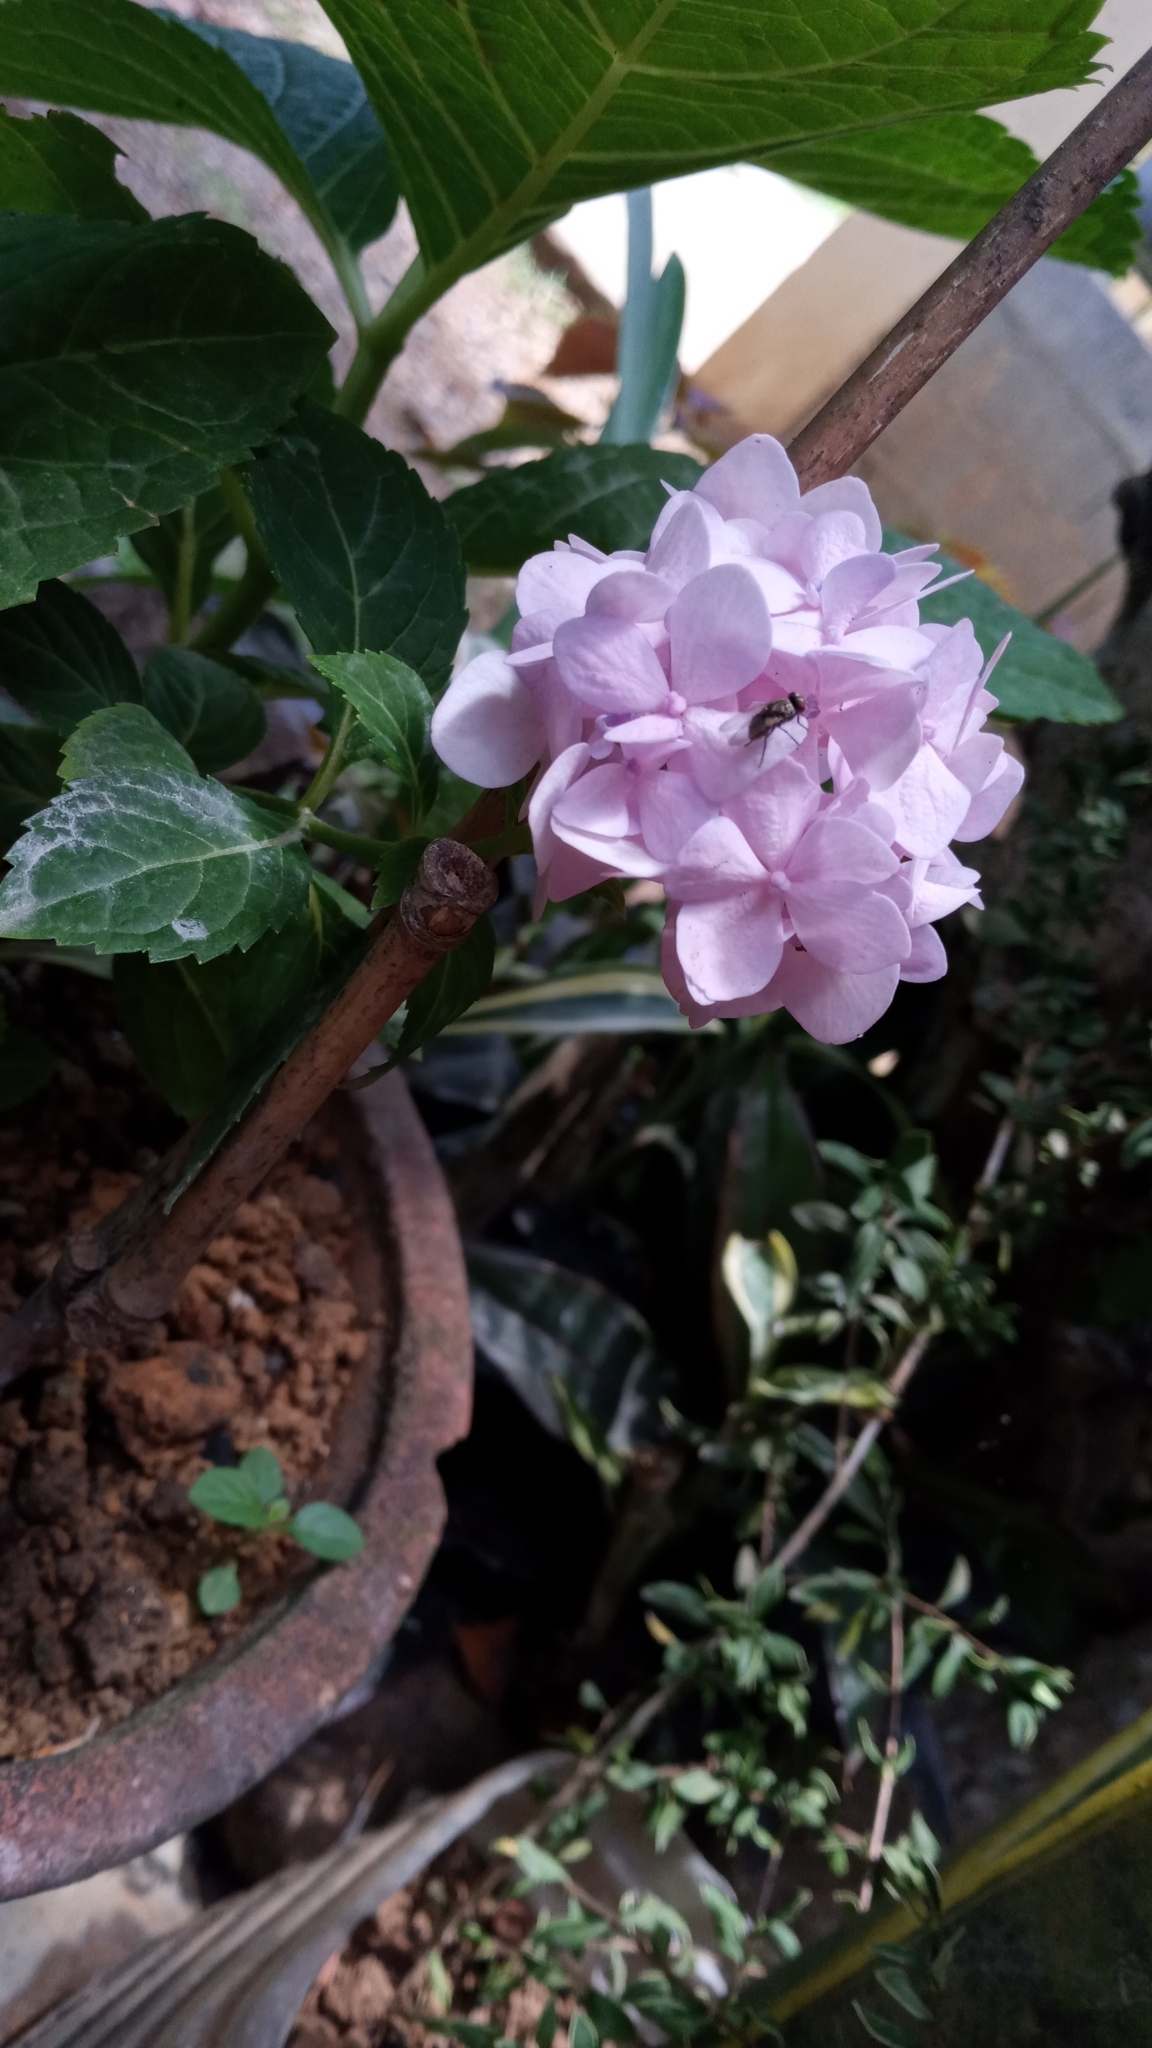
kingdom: Plantae
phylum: Tracheophyta
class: Magnoliopsida
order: Cornales
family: Hydrangeaceae
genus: Hydrangea
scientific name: Hydrangea macrophylla
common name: Hydrangea
